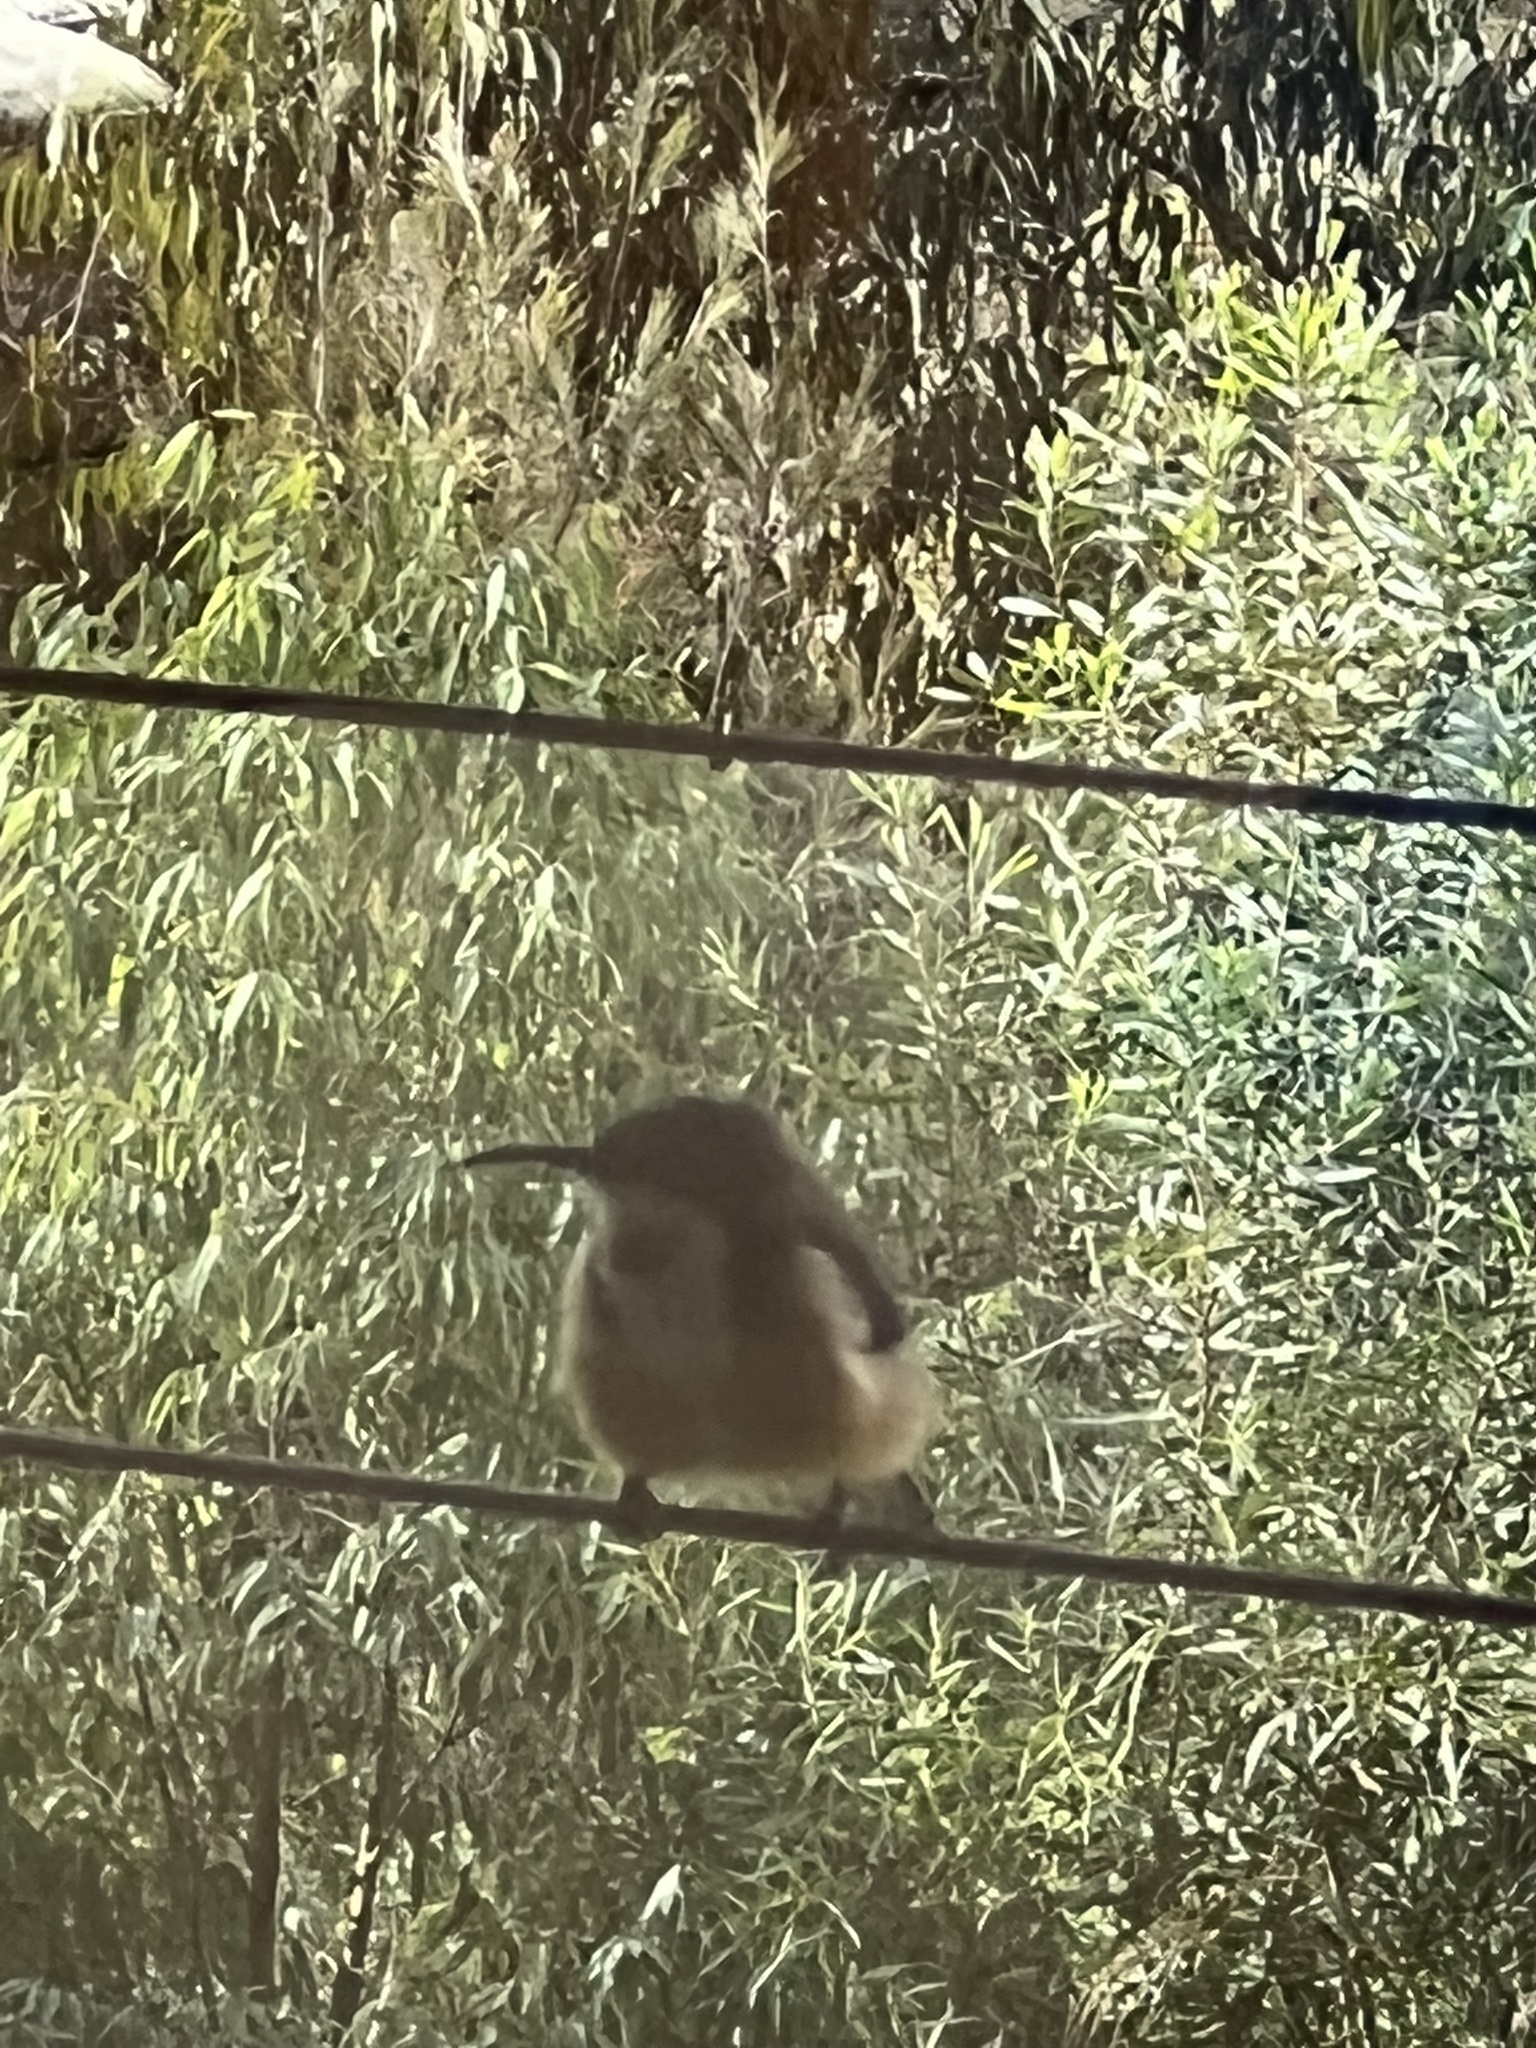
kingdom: Animalia
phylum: Chordata
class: Aves
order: Passeriformes
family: Meliphagidae
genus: Acanthorhynchus
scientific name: Acanthorhynchus tenuirostris
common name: Eastern spinebill
